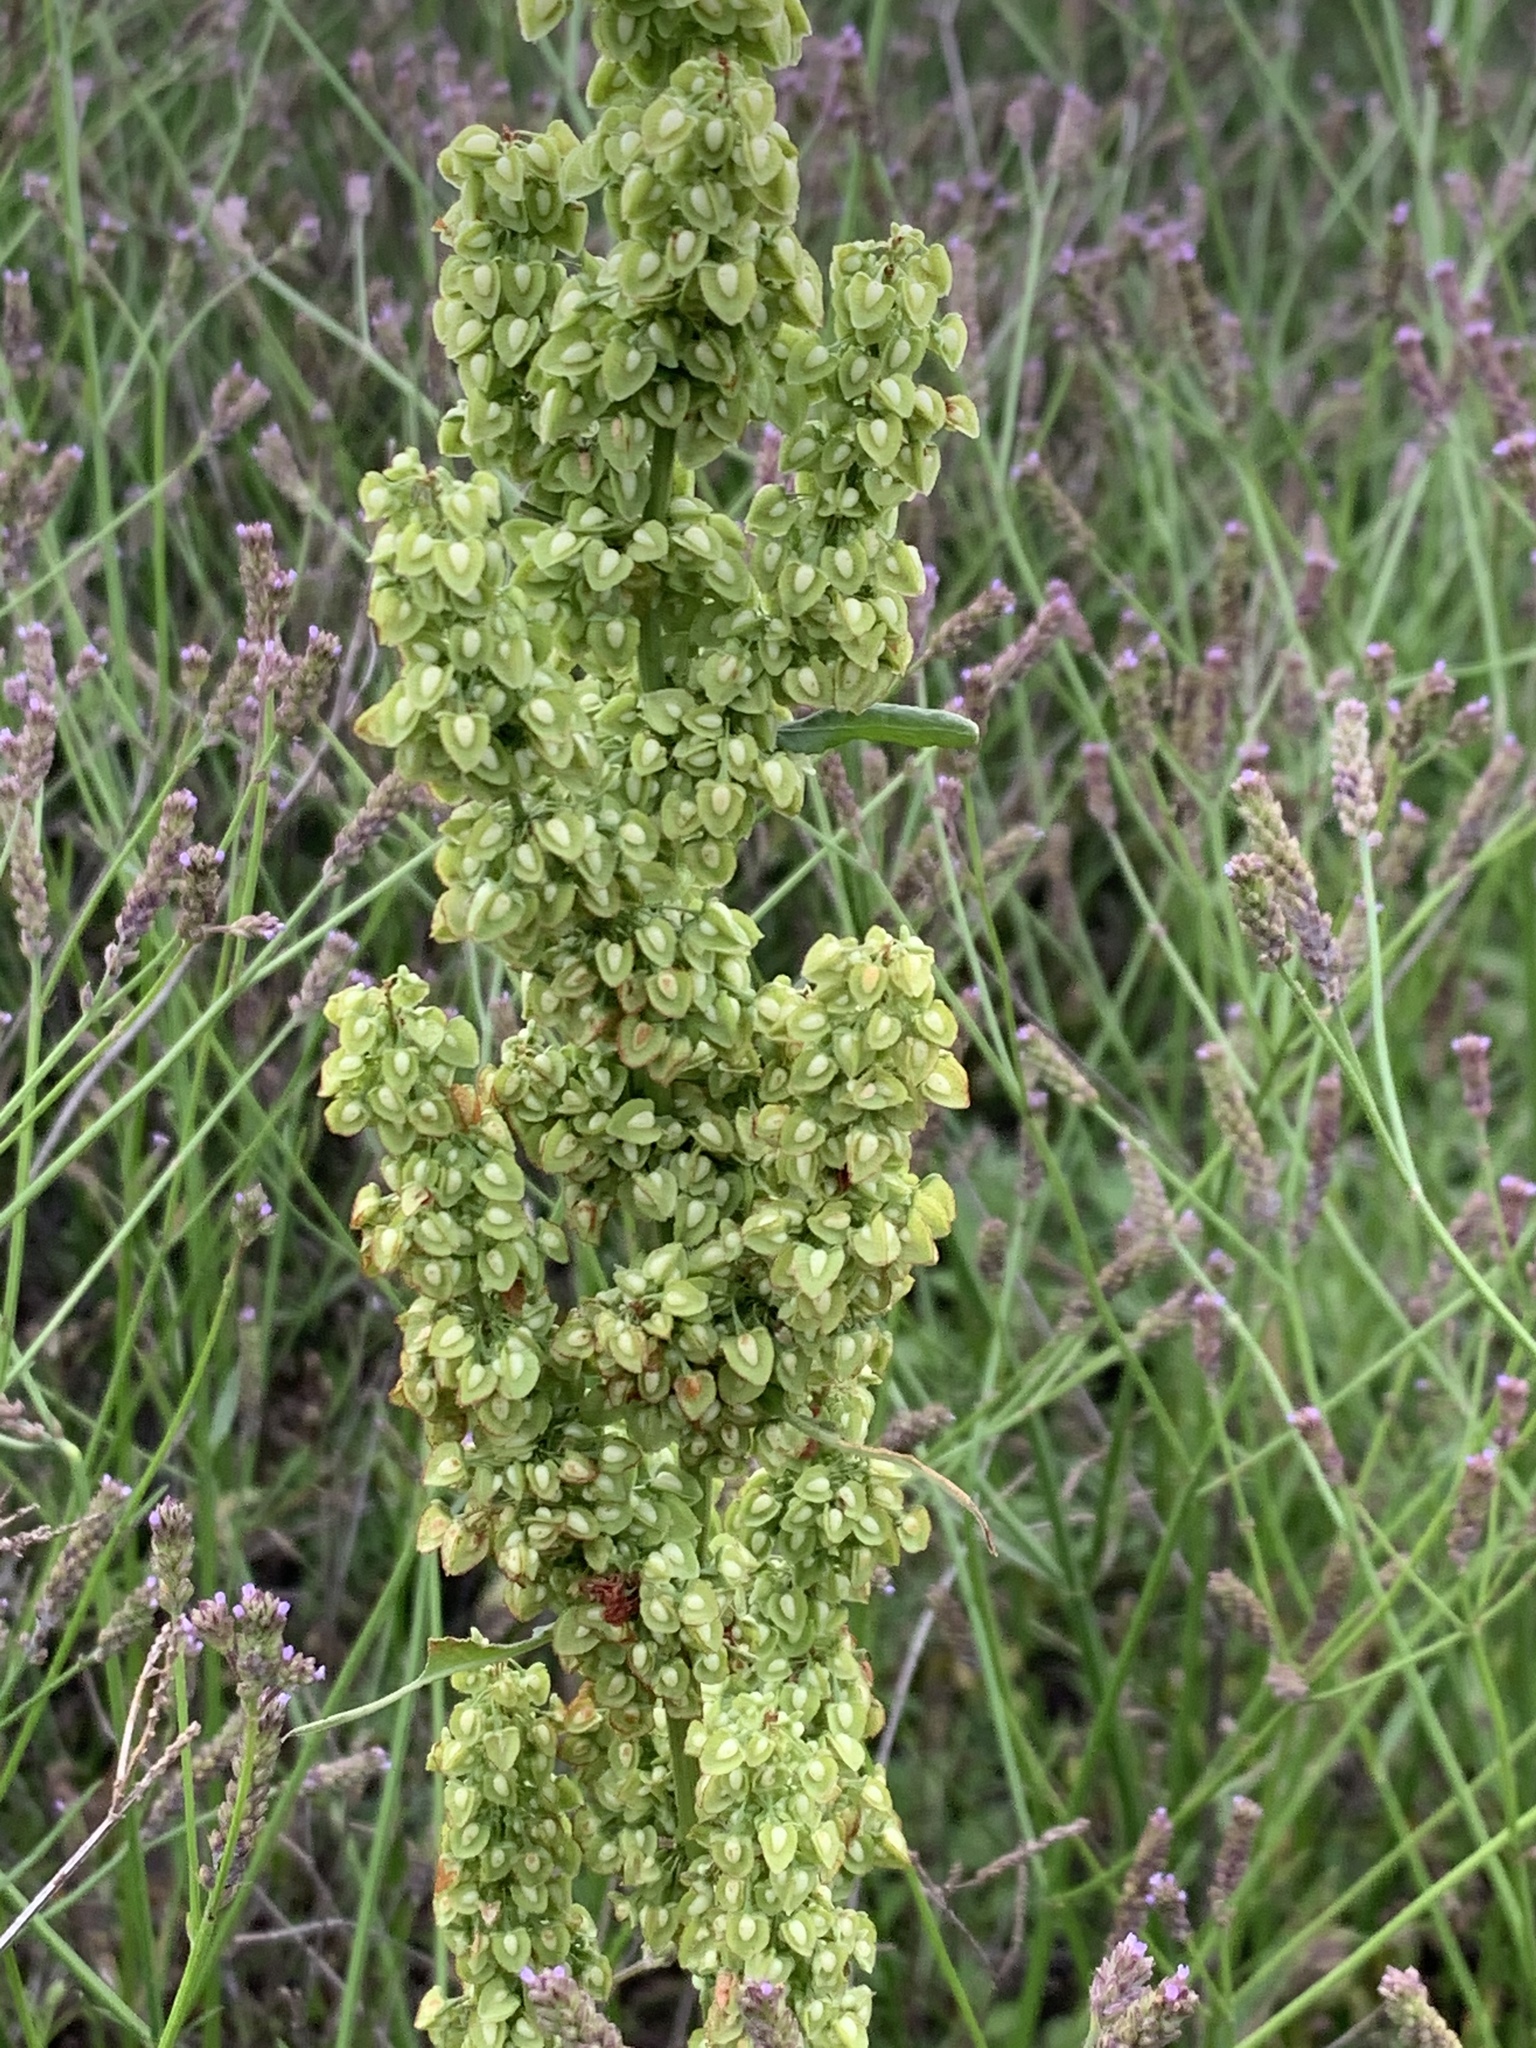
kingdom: Plantae
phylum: Tracheophyta
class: Magnoliopsida
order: Caryophyllales
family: Polygonaceae
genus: Rumex
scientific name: Rumex crispus
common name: Curled dock
